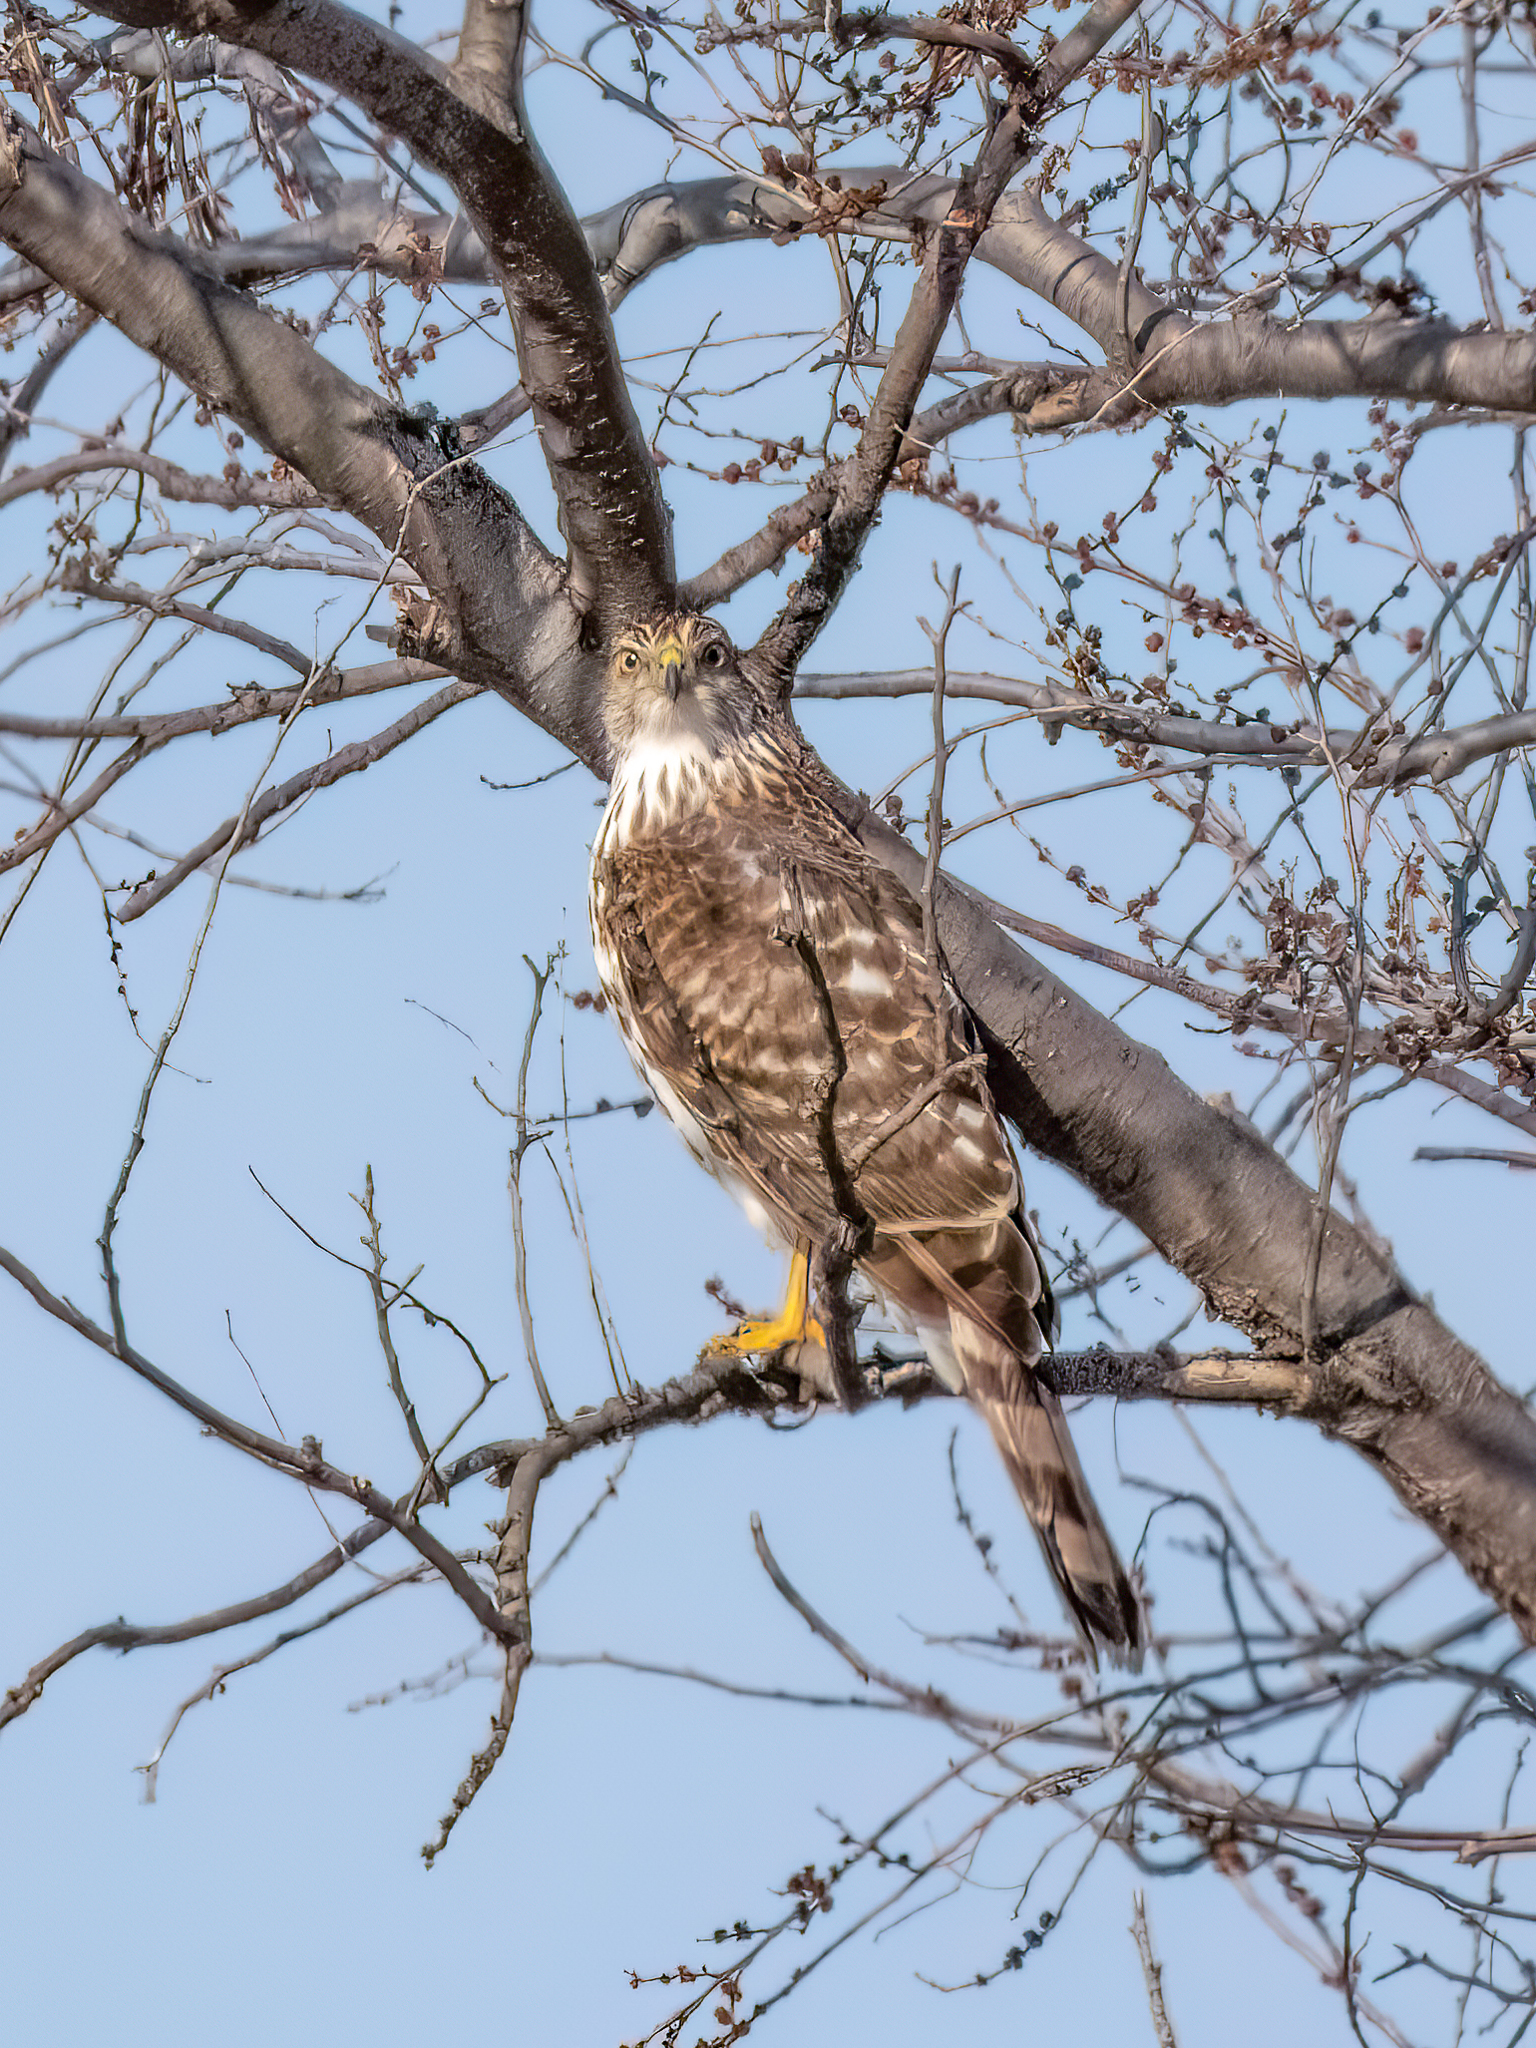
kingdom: Animalia
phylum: Chordata
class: Aves
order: Accipitriformes
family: Accipitridae
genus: Accipiter
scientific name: Accipiter cooperii
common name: Cooper's hawk
